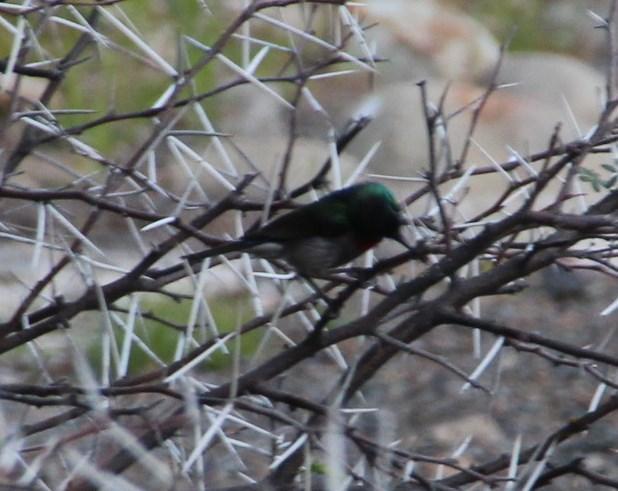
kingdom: Animalia
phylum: Chordata
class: Aves
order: Passeriformes
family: Nectariniidae
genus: Cinnyris
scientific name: Cinnyris chalybeus
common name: Southern double-collared sunbird
